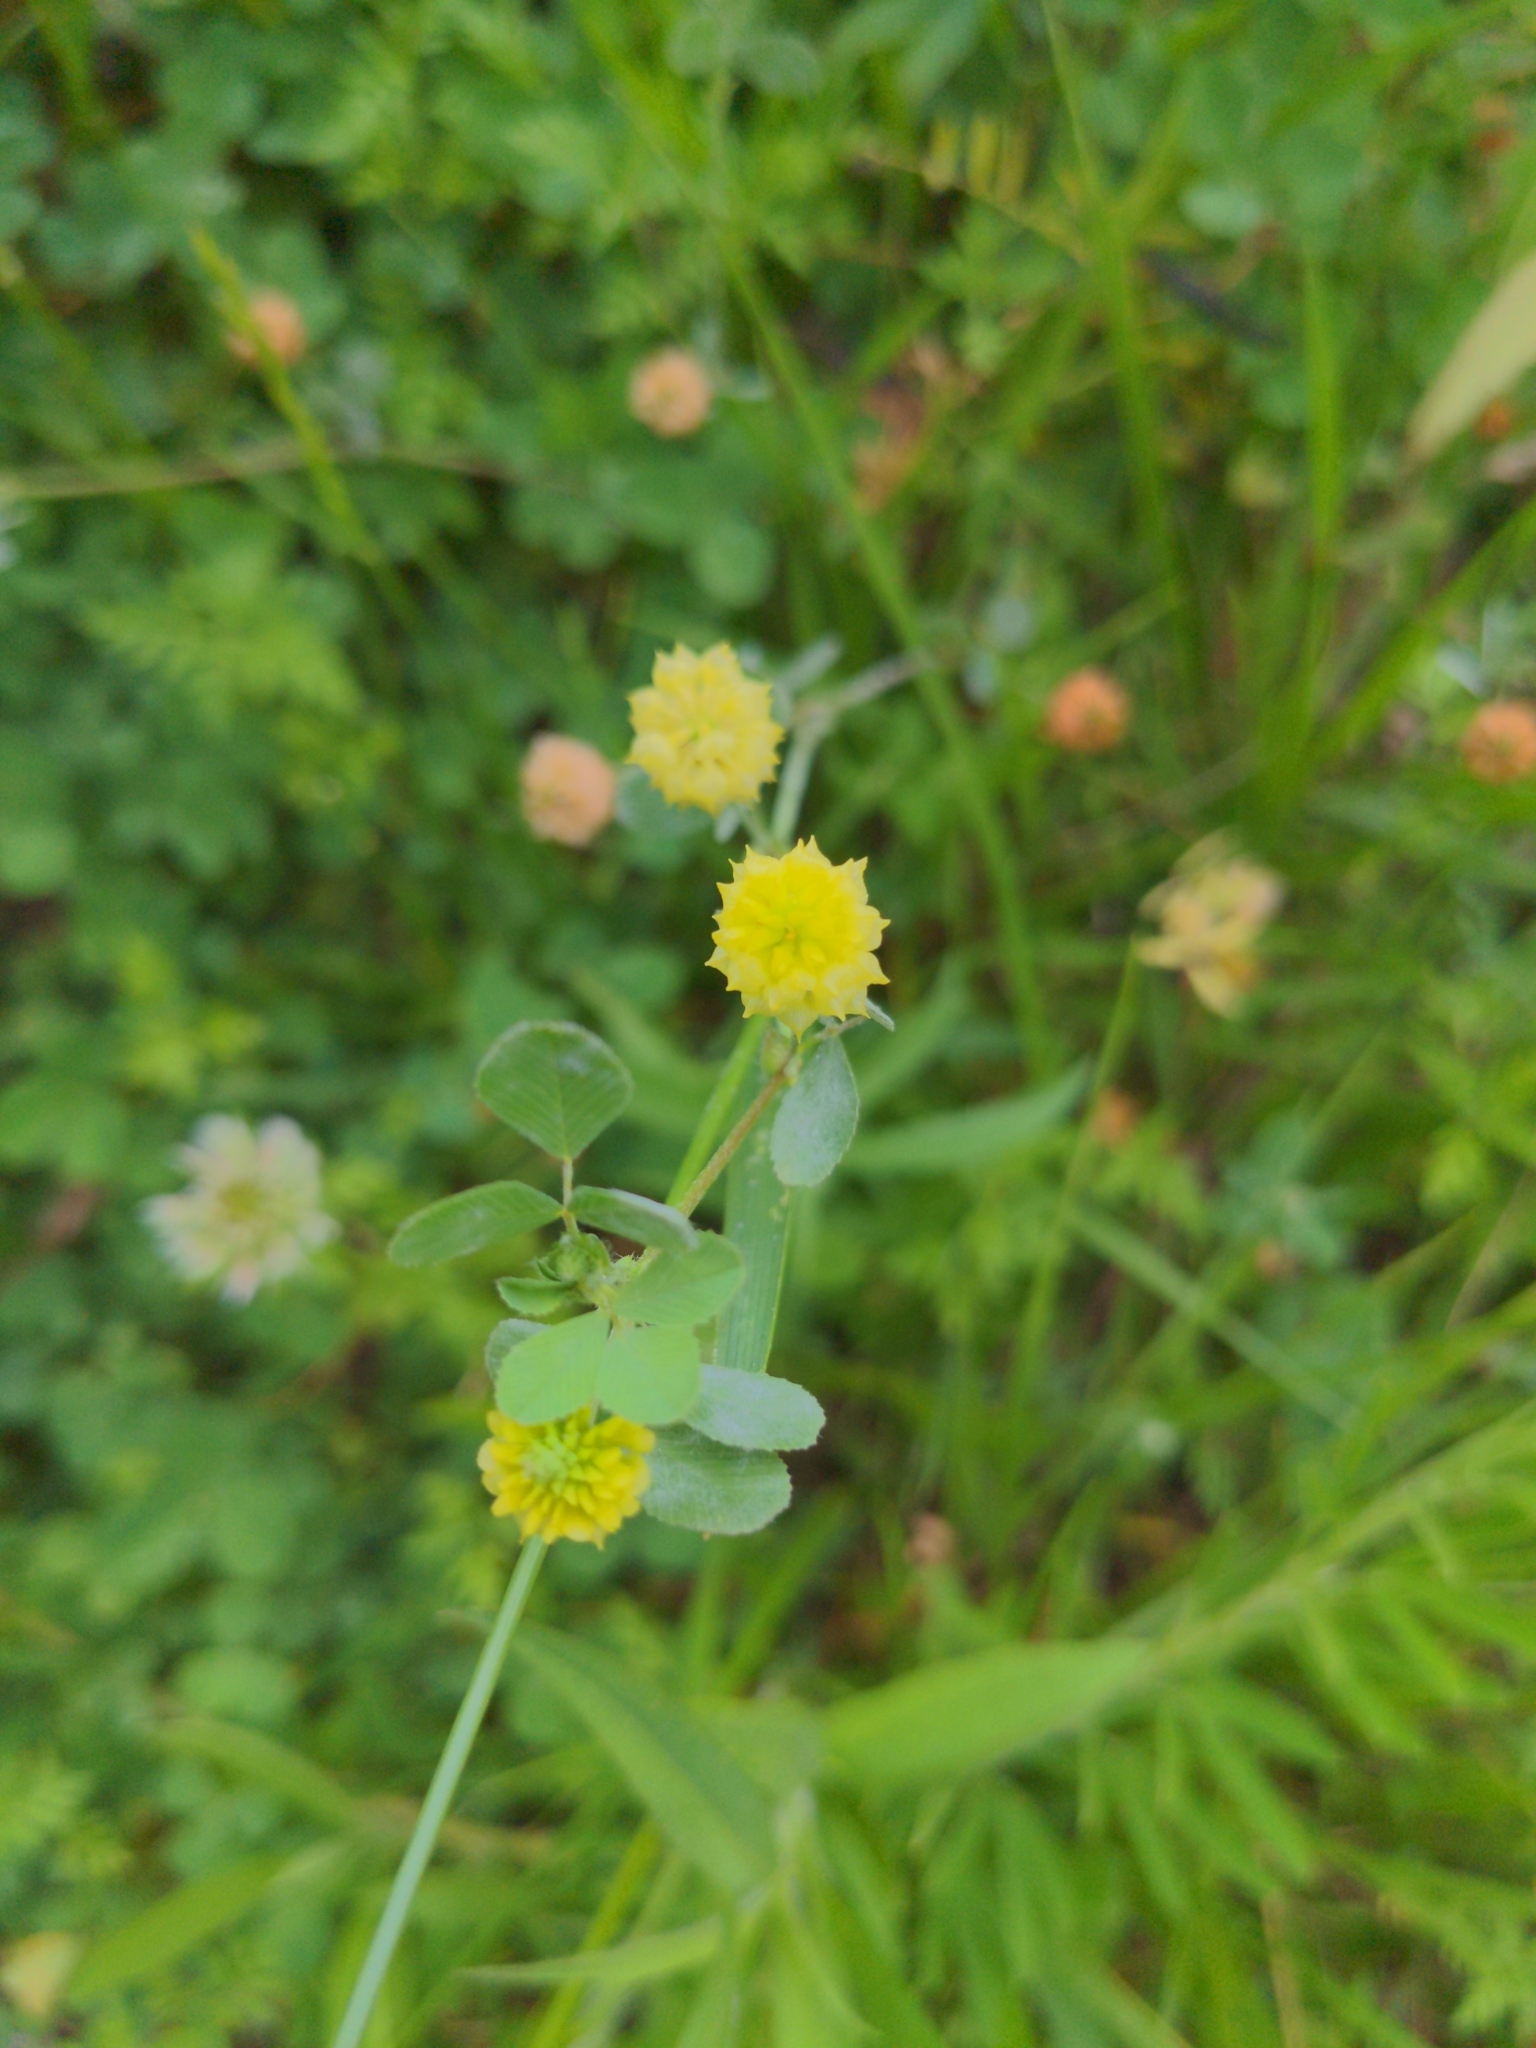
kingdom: Plantae
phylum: Tracheophyta
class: Magnoliopsida
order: Fabales
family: Fabaceae
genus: Trifolium
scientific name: Trifolium campestre
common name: Field clover
